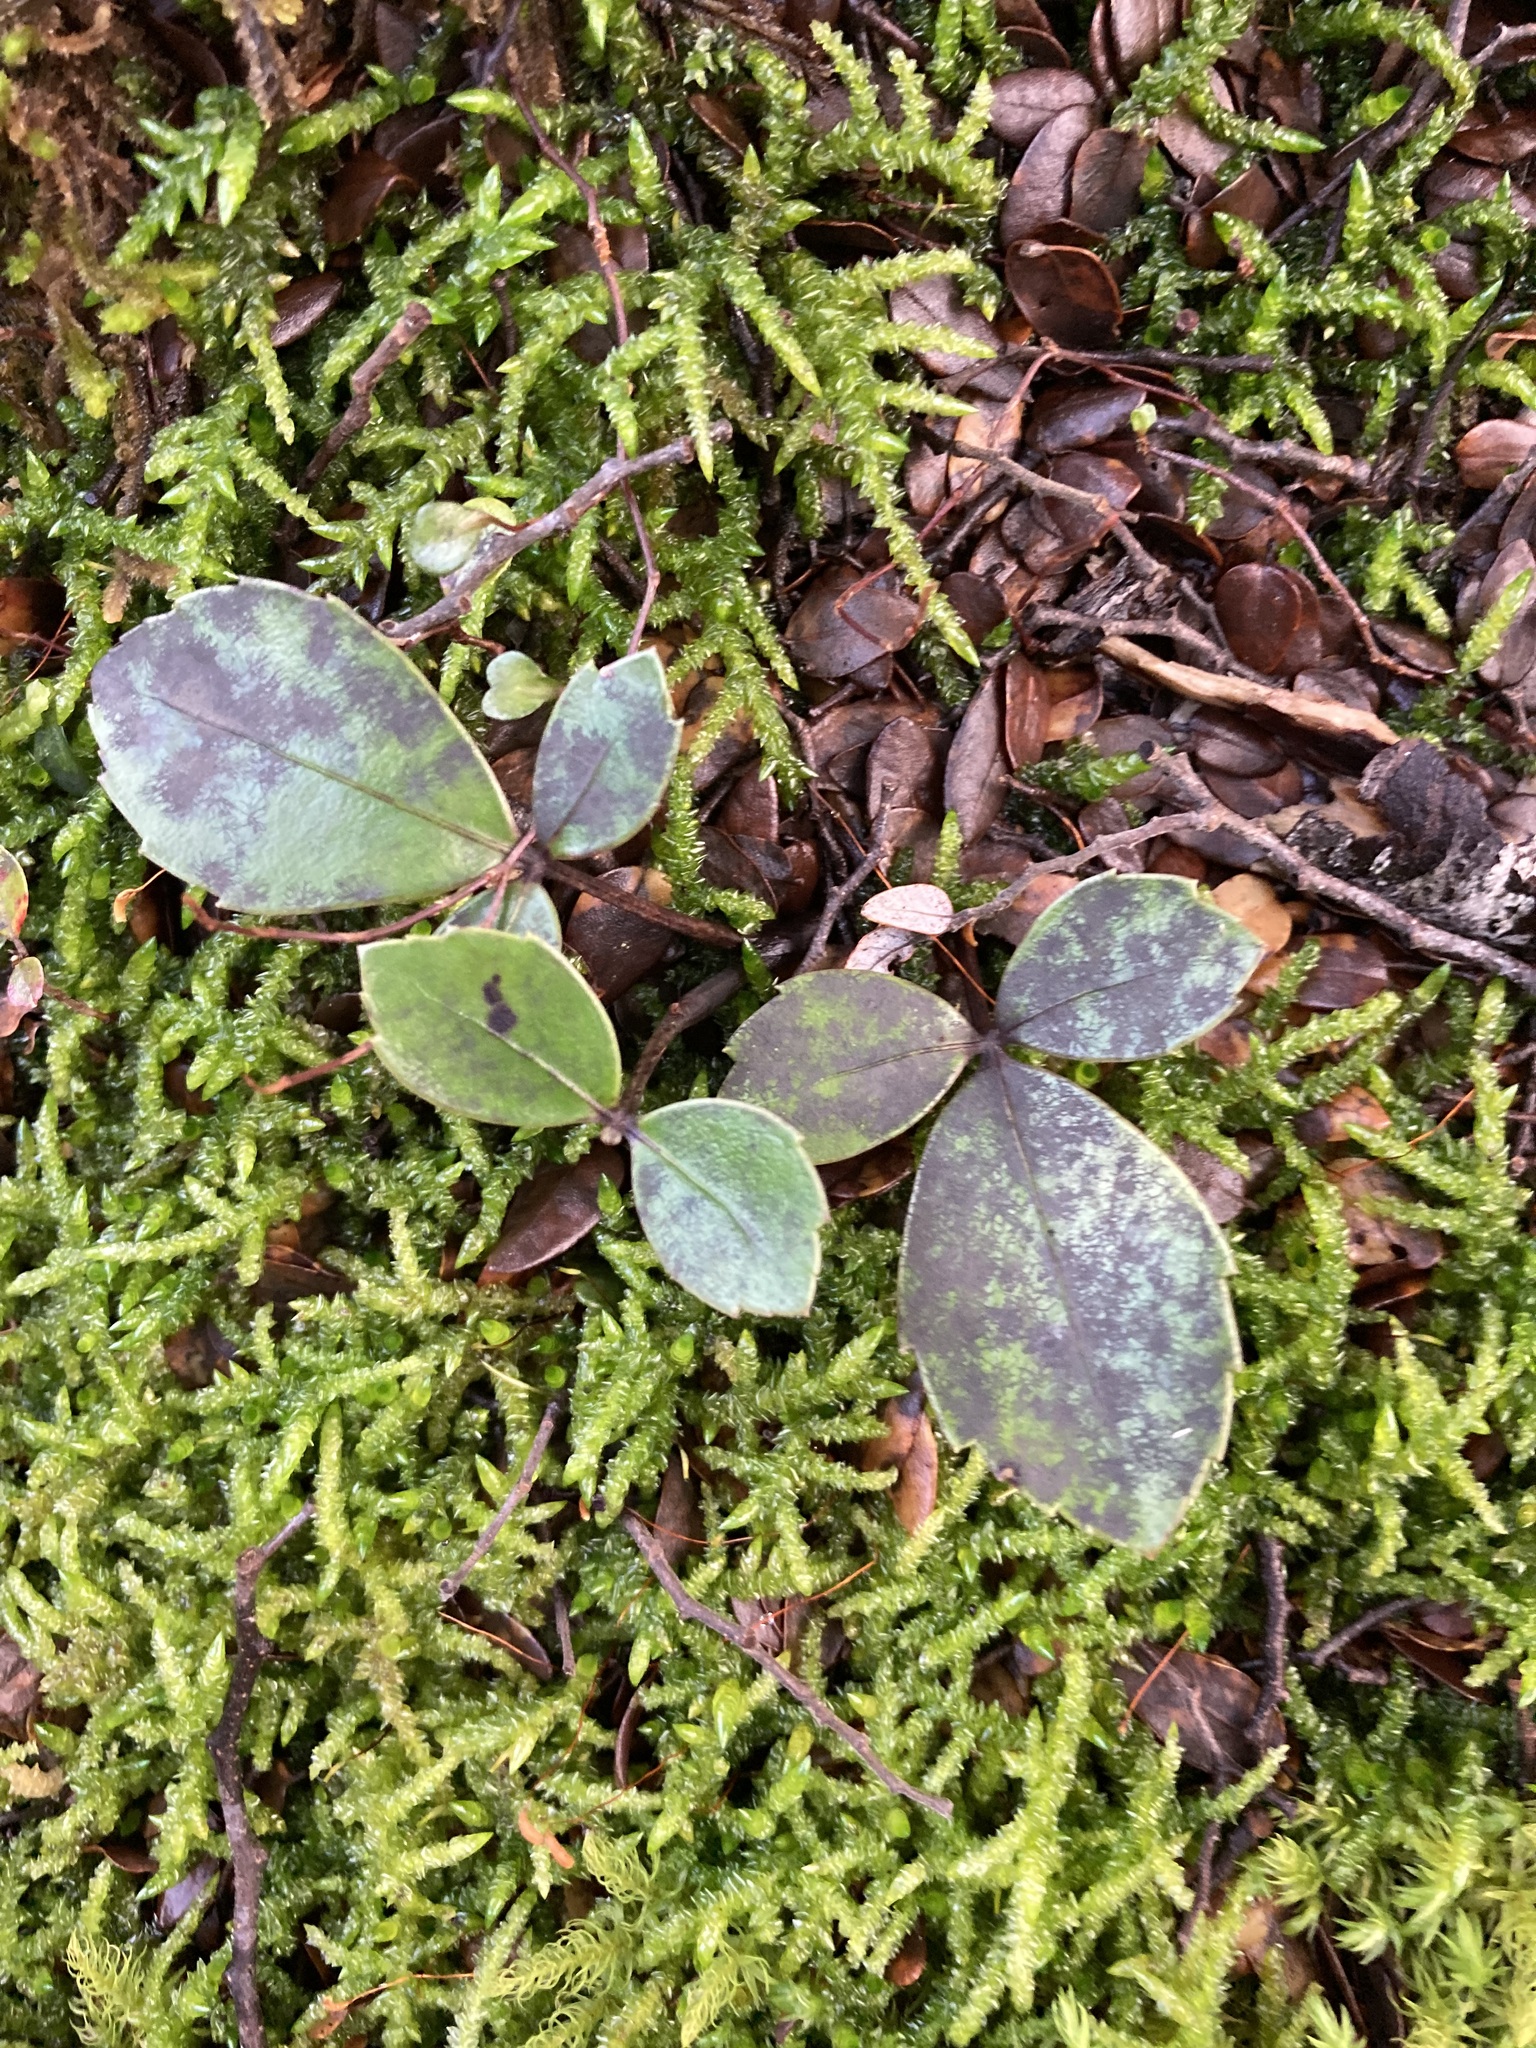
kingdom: Plantae
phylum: Tracheophyta
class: Magnoliopsida
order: Apiales
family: Araliaceae
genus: Neopanax
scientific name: Neopanax colensoi
